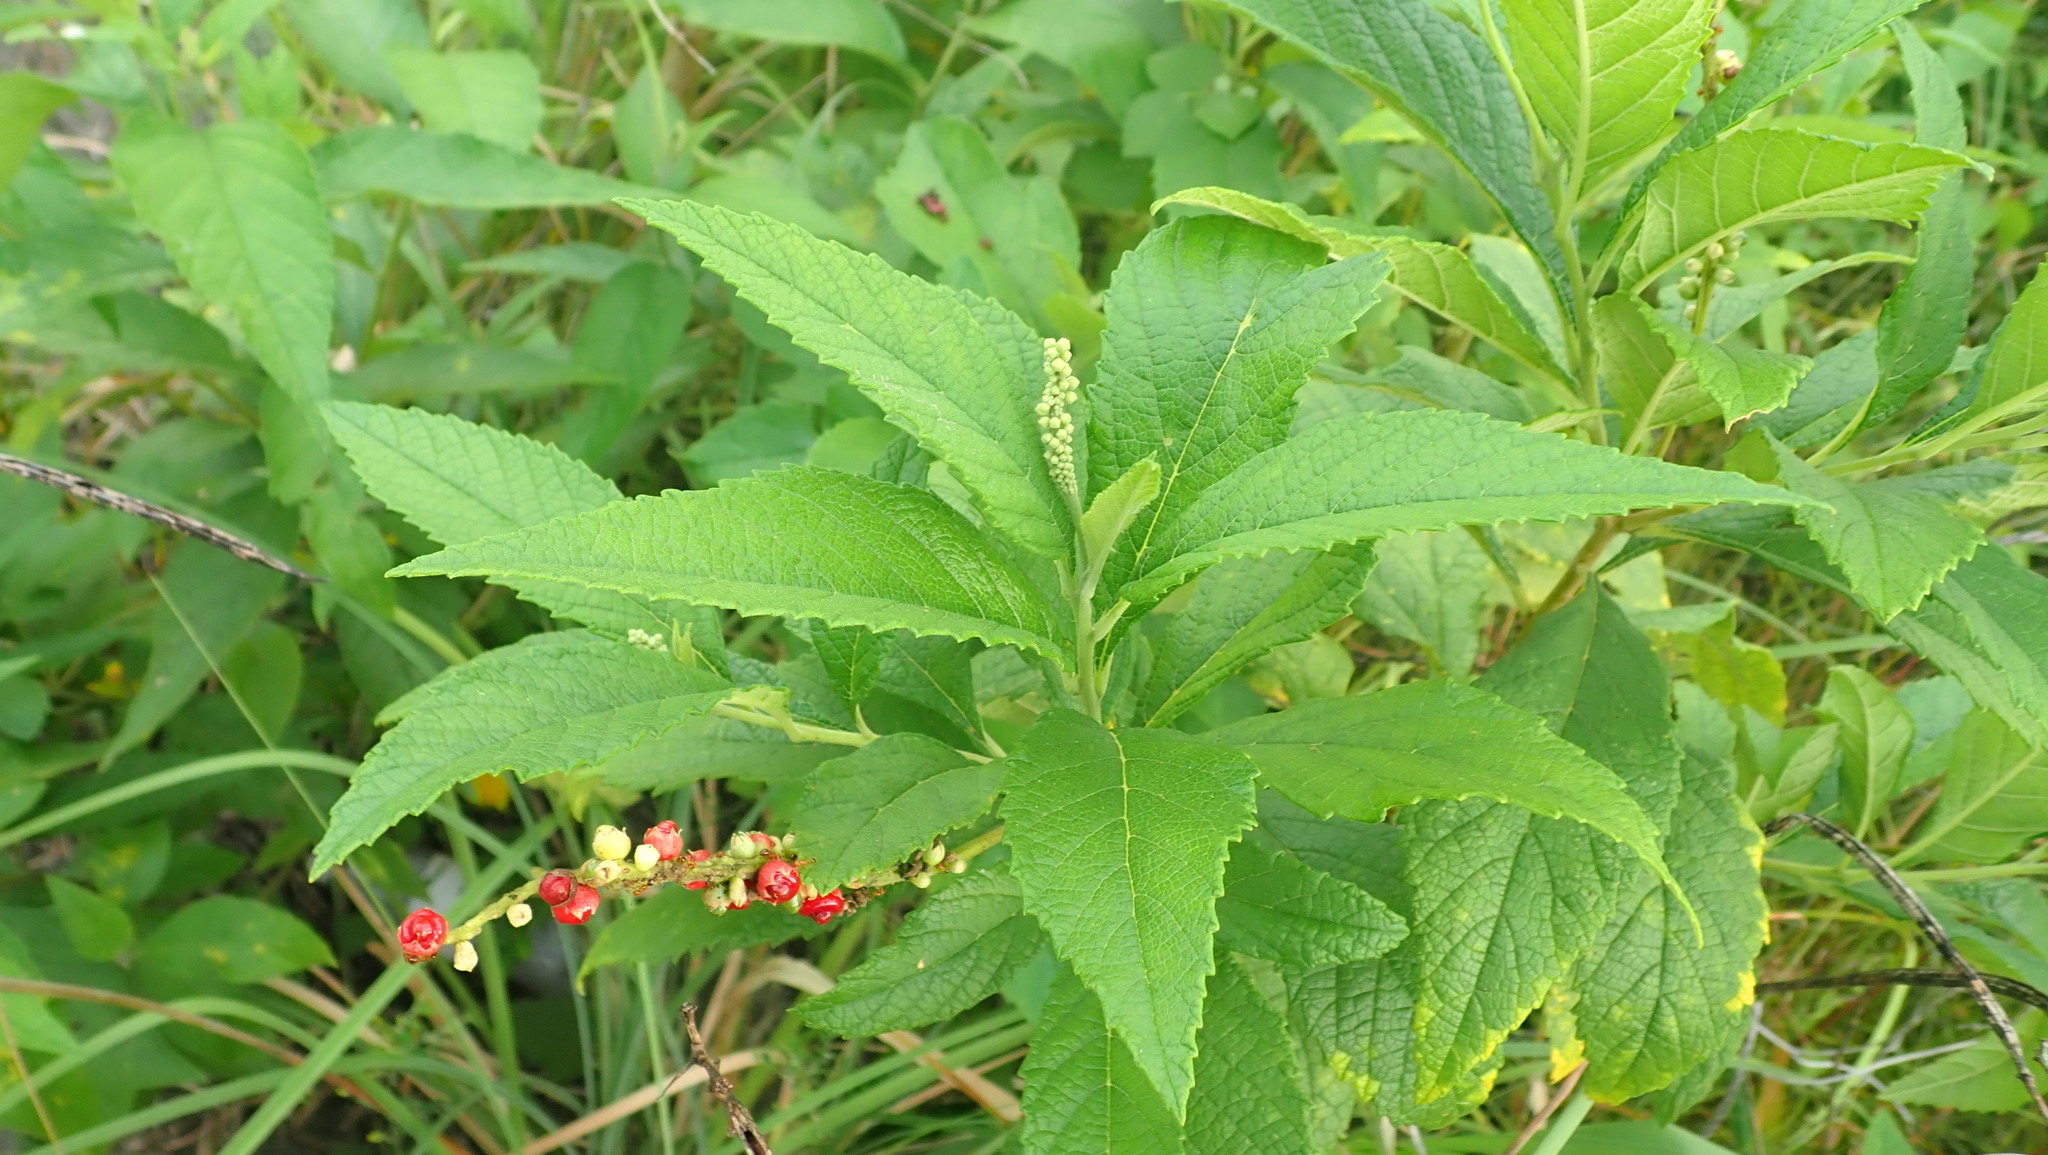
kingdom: Plantae
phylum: Tracheophyta
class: Magnoliopsida
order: Boraginales
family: Cordiaceae
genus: Varronia
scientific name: Varronia curassavica
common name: Black sage
